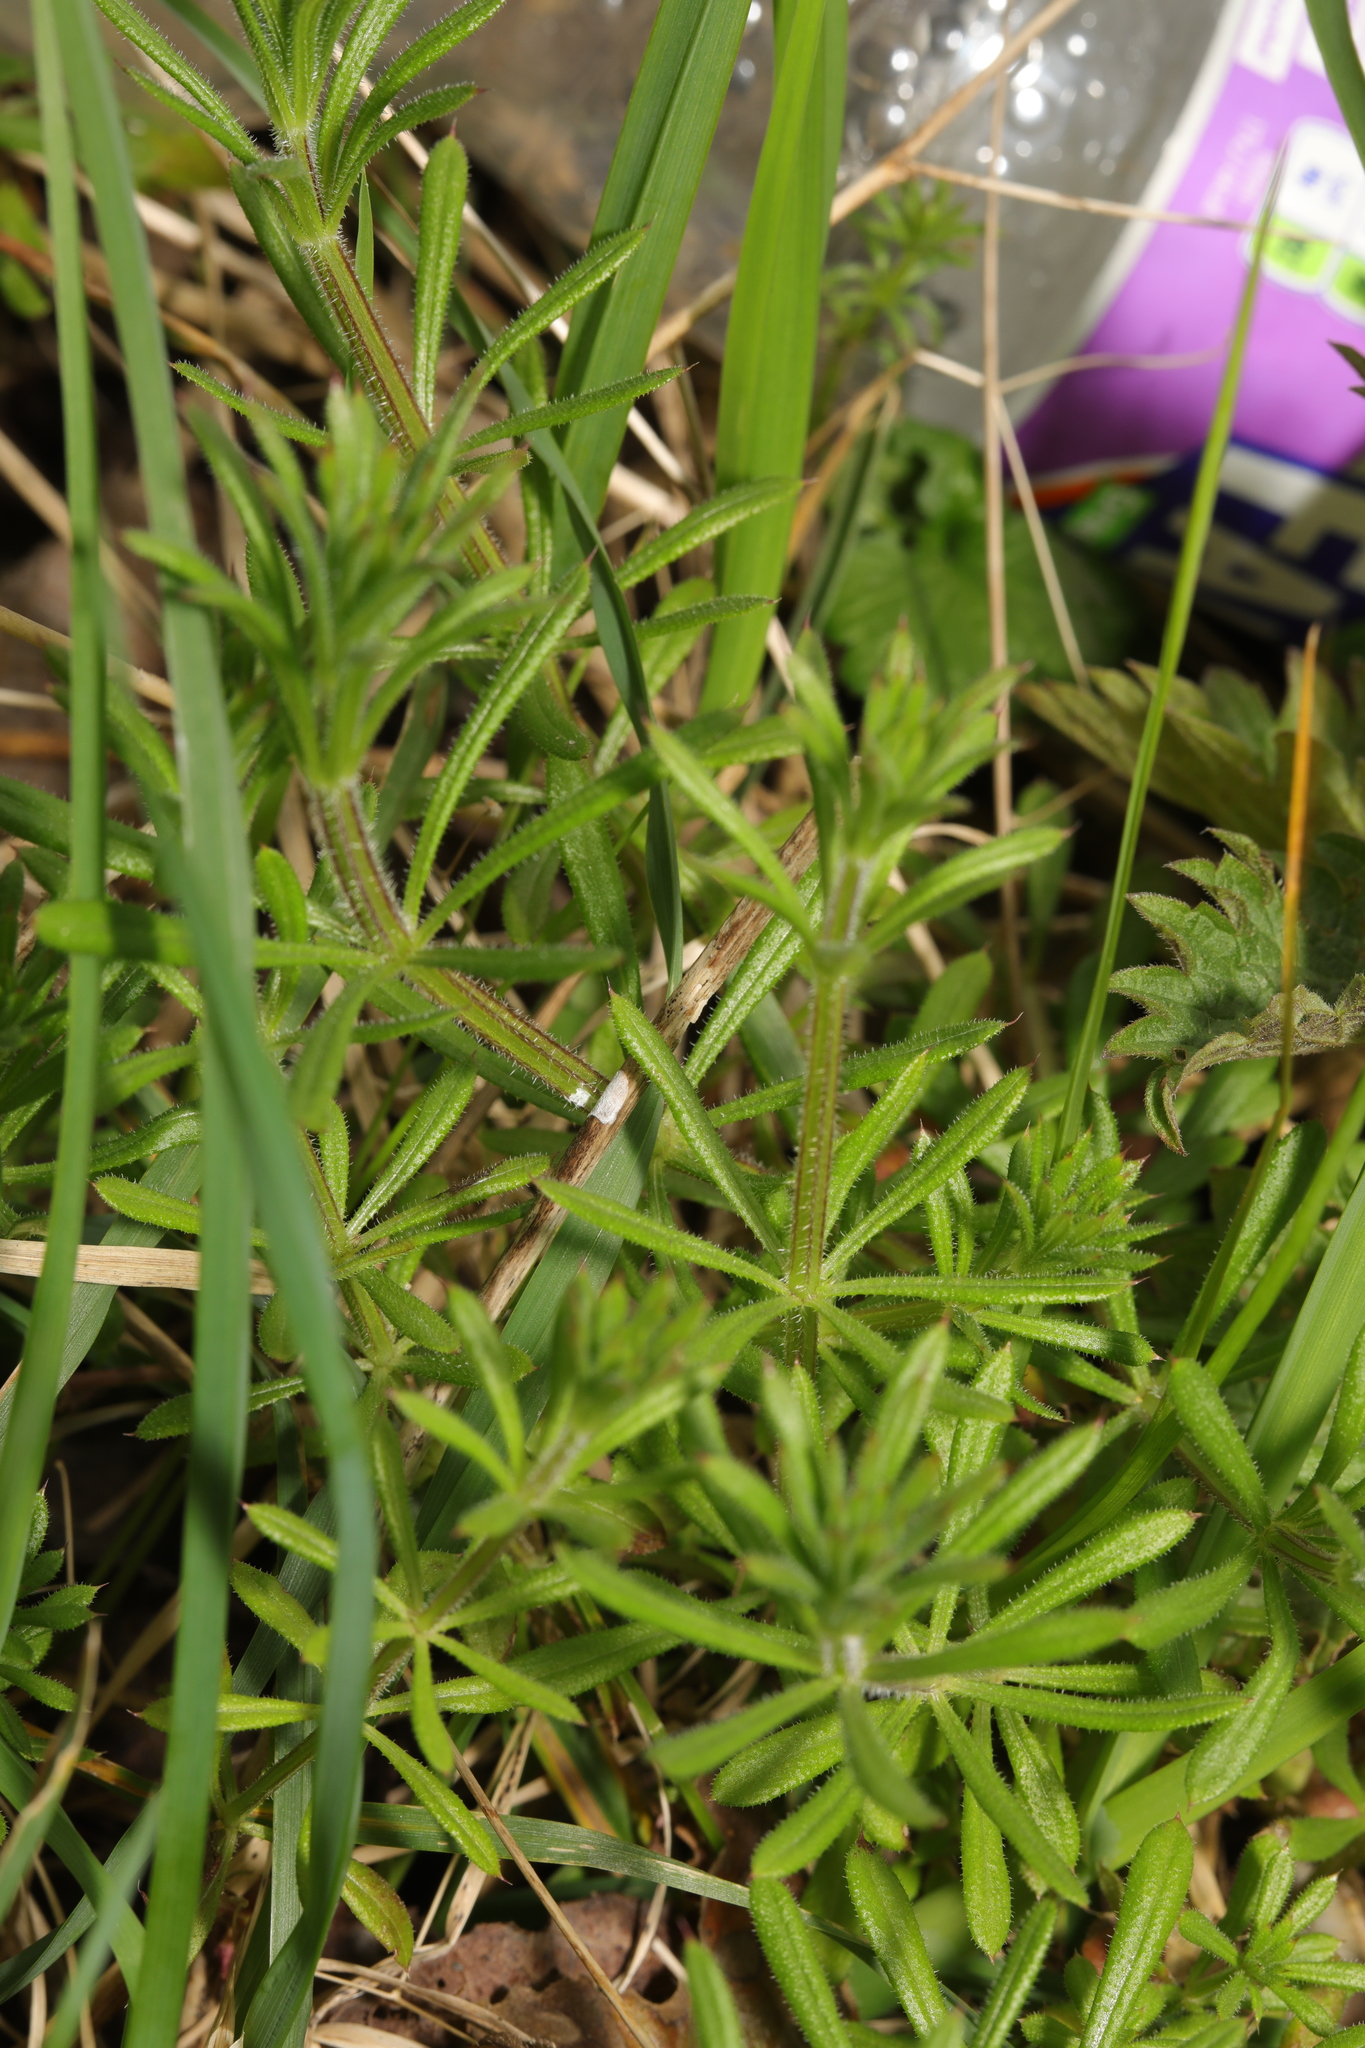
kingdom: Plantae
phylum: Tracheophyta
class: Magnoliopsida
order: Gentianales
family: Rubiaceae
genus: Galium
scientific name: Galium aparine
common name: Cleavers
